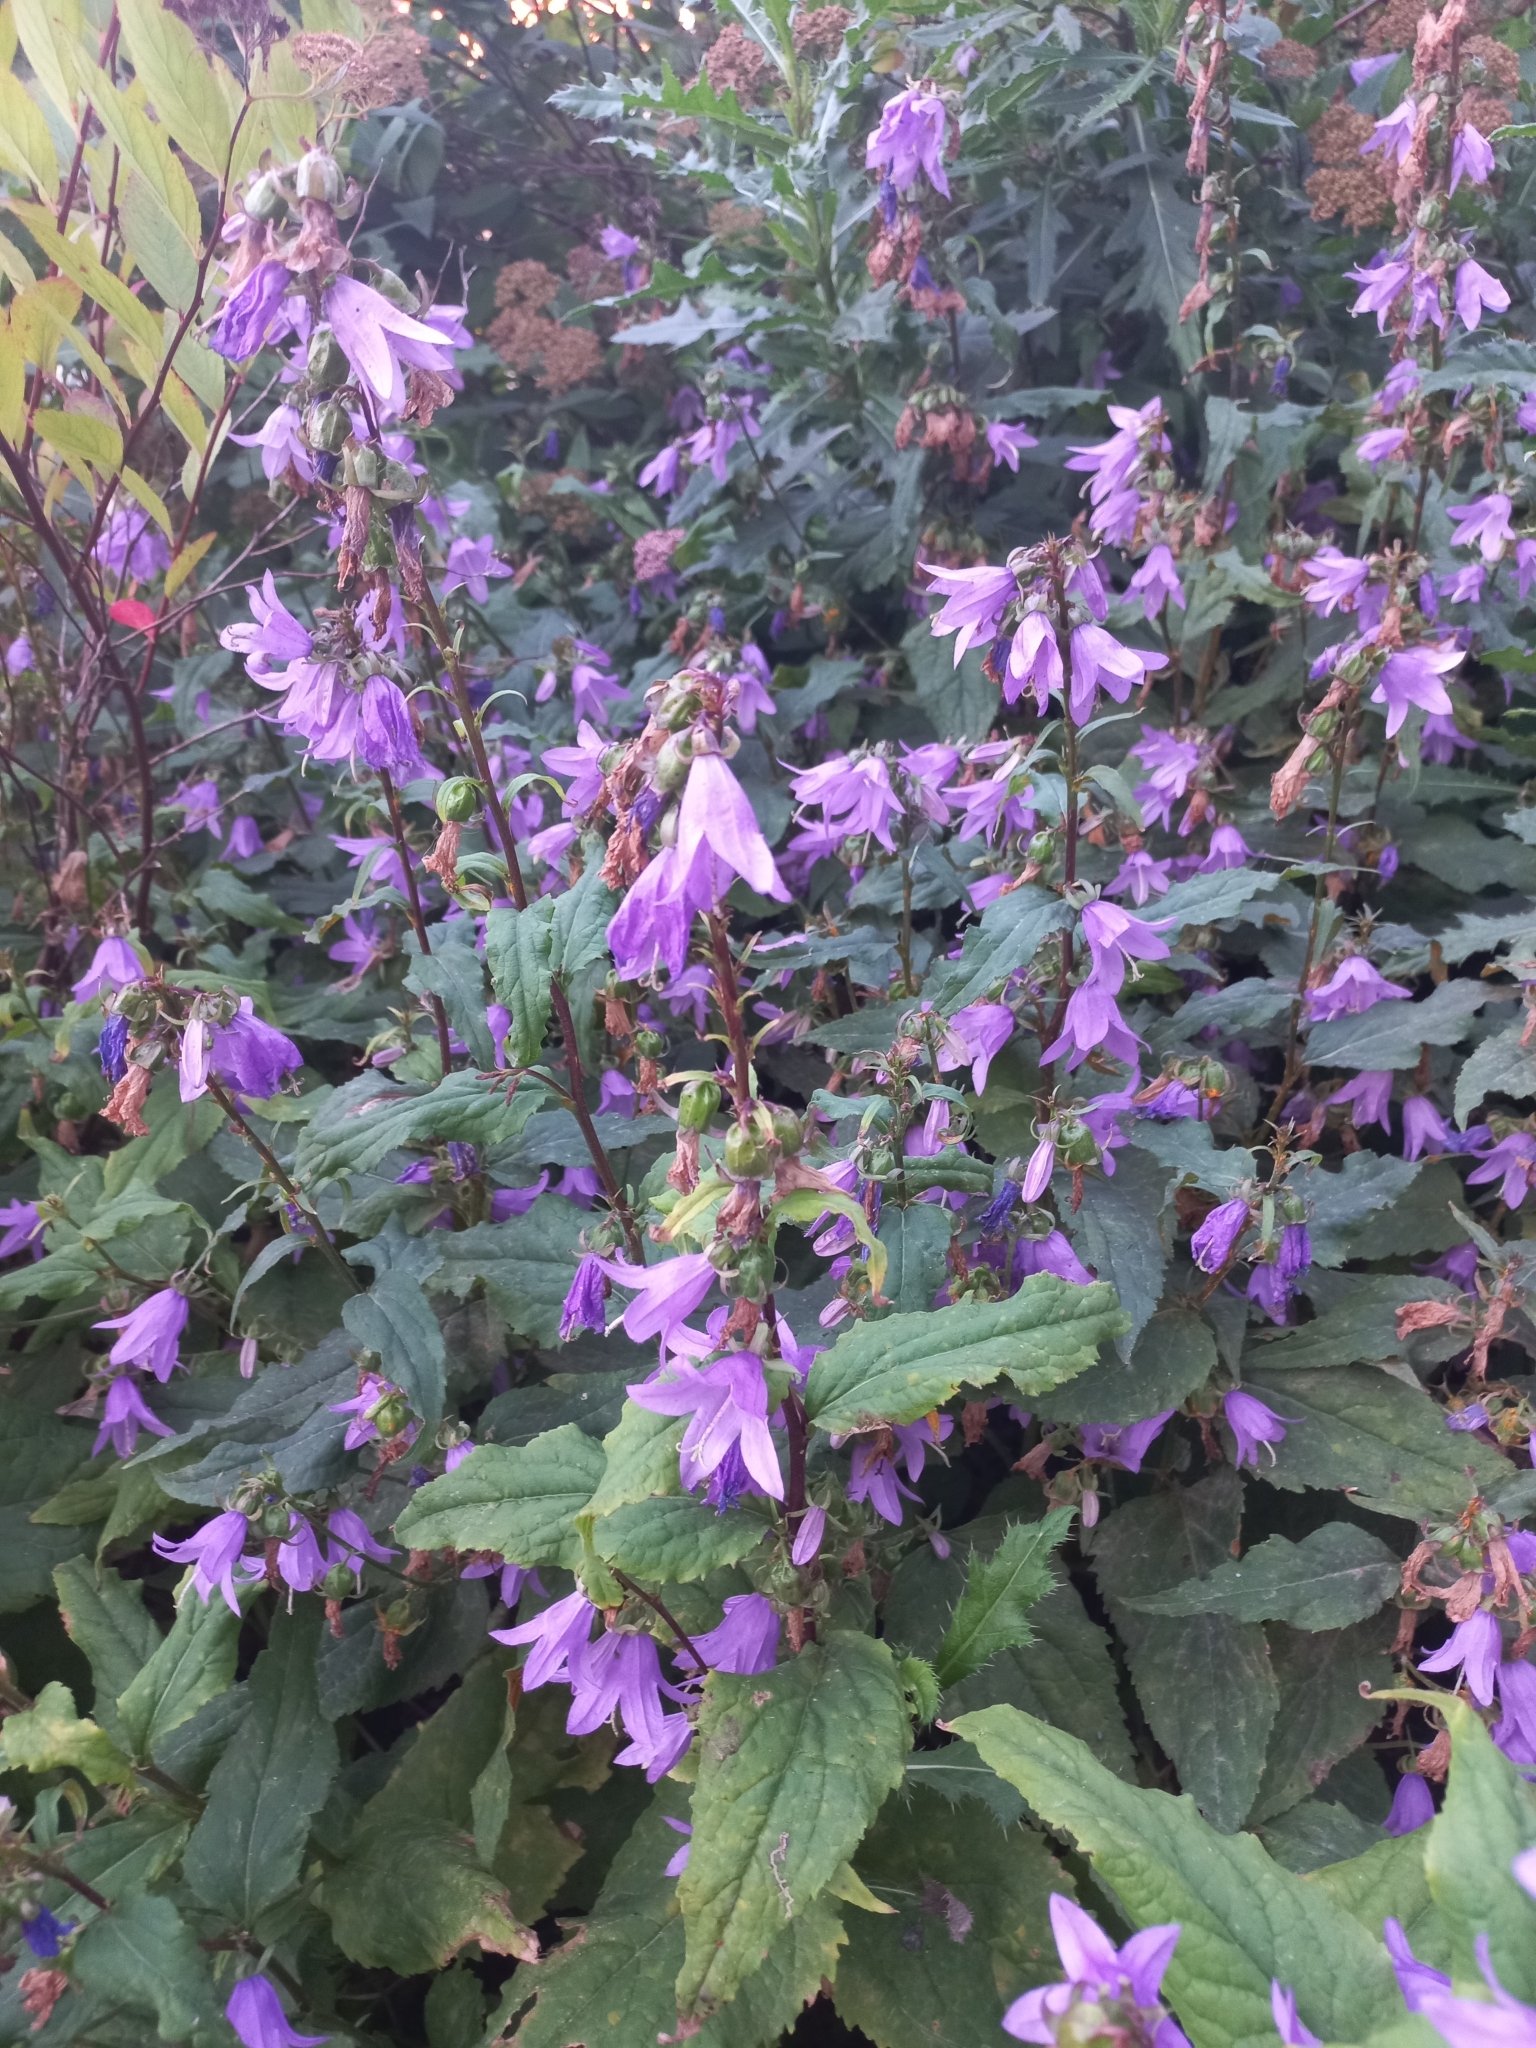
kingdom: Plantae
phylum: Tracheophyta
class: Magnoliopsida
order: Asterales
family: Campanulaceae
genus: Campanula
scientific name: Campanula rapunculoides
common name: Creeping bellflower
